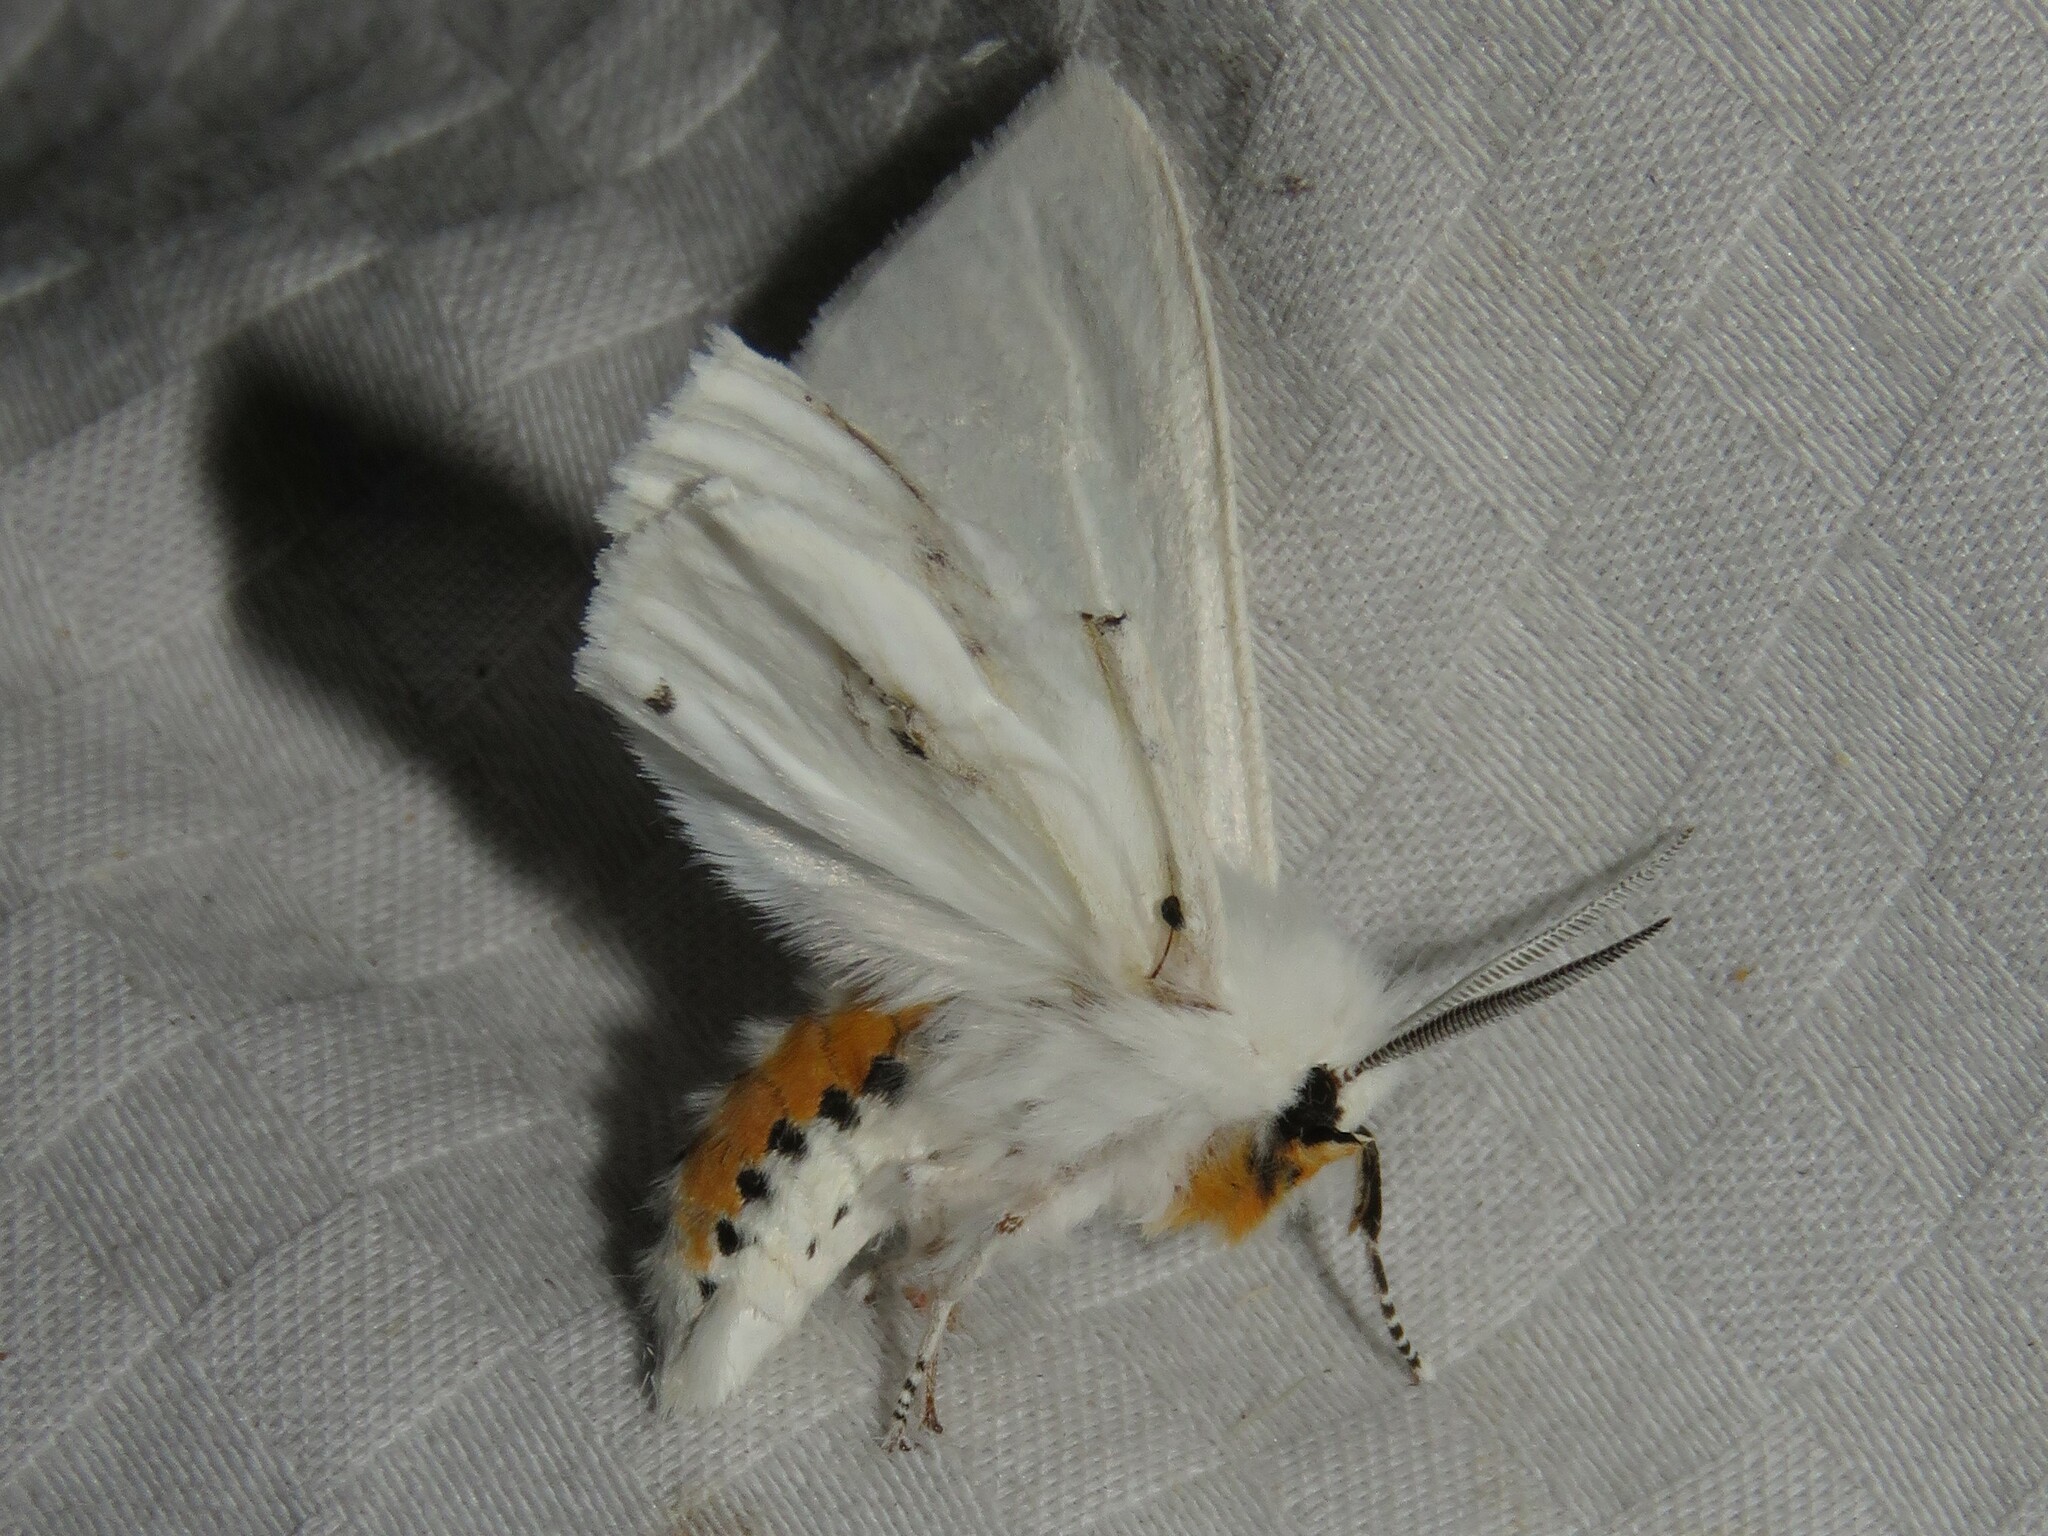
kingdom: Animalia
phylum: Arthropoda
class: Insecta
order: Lepidoptera
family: Erebidae
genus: Spilosoma
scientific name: Spilosoma virginica
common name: Virginia tiger moth
